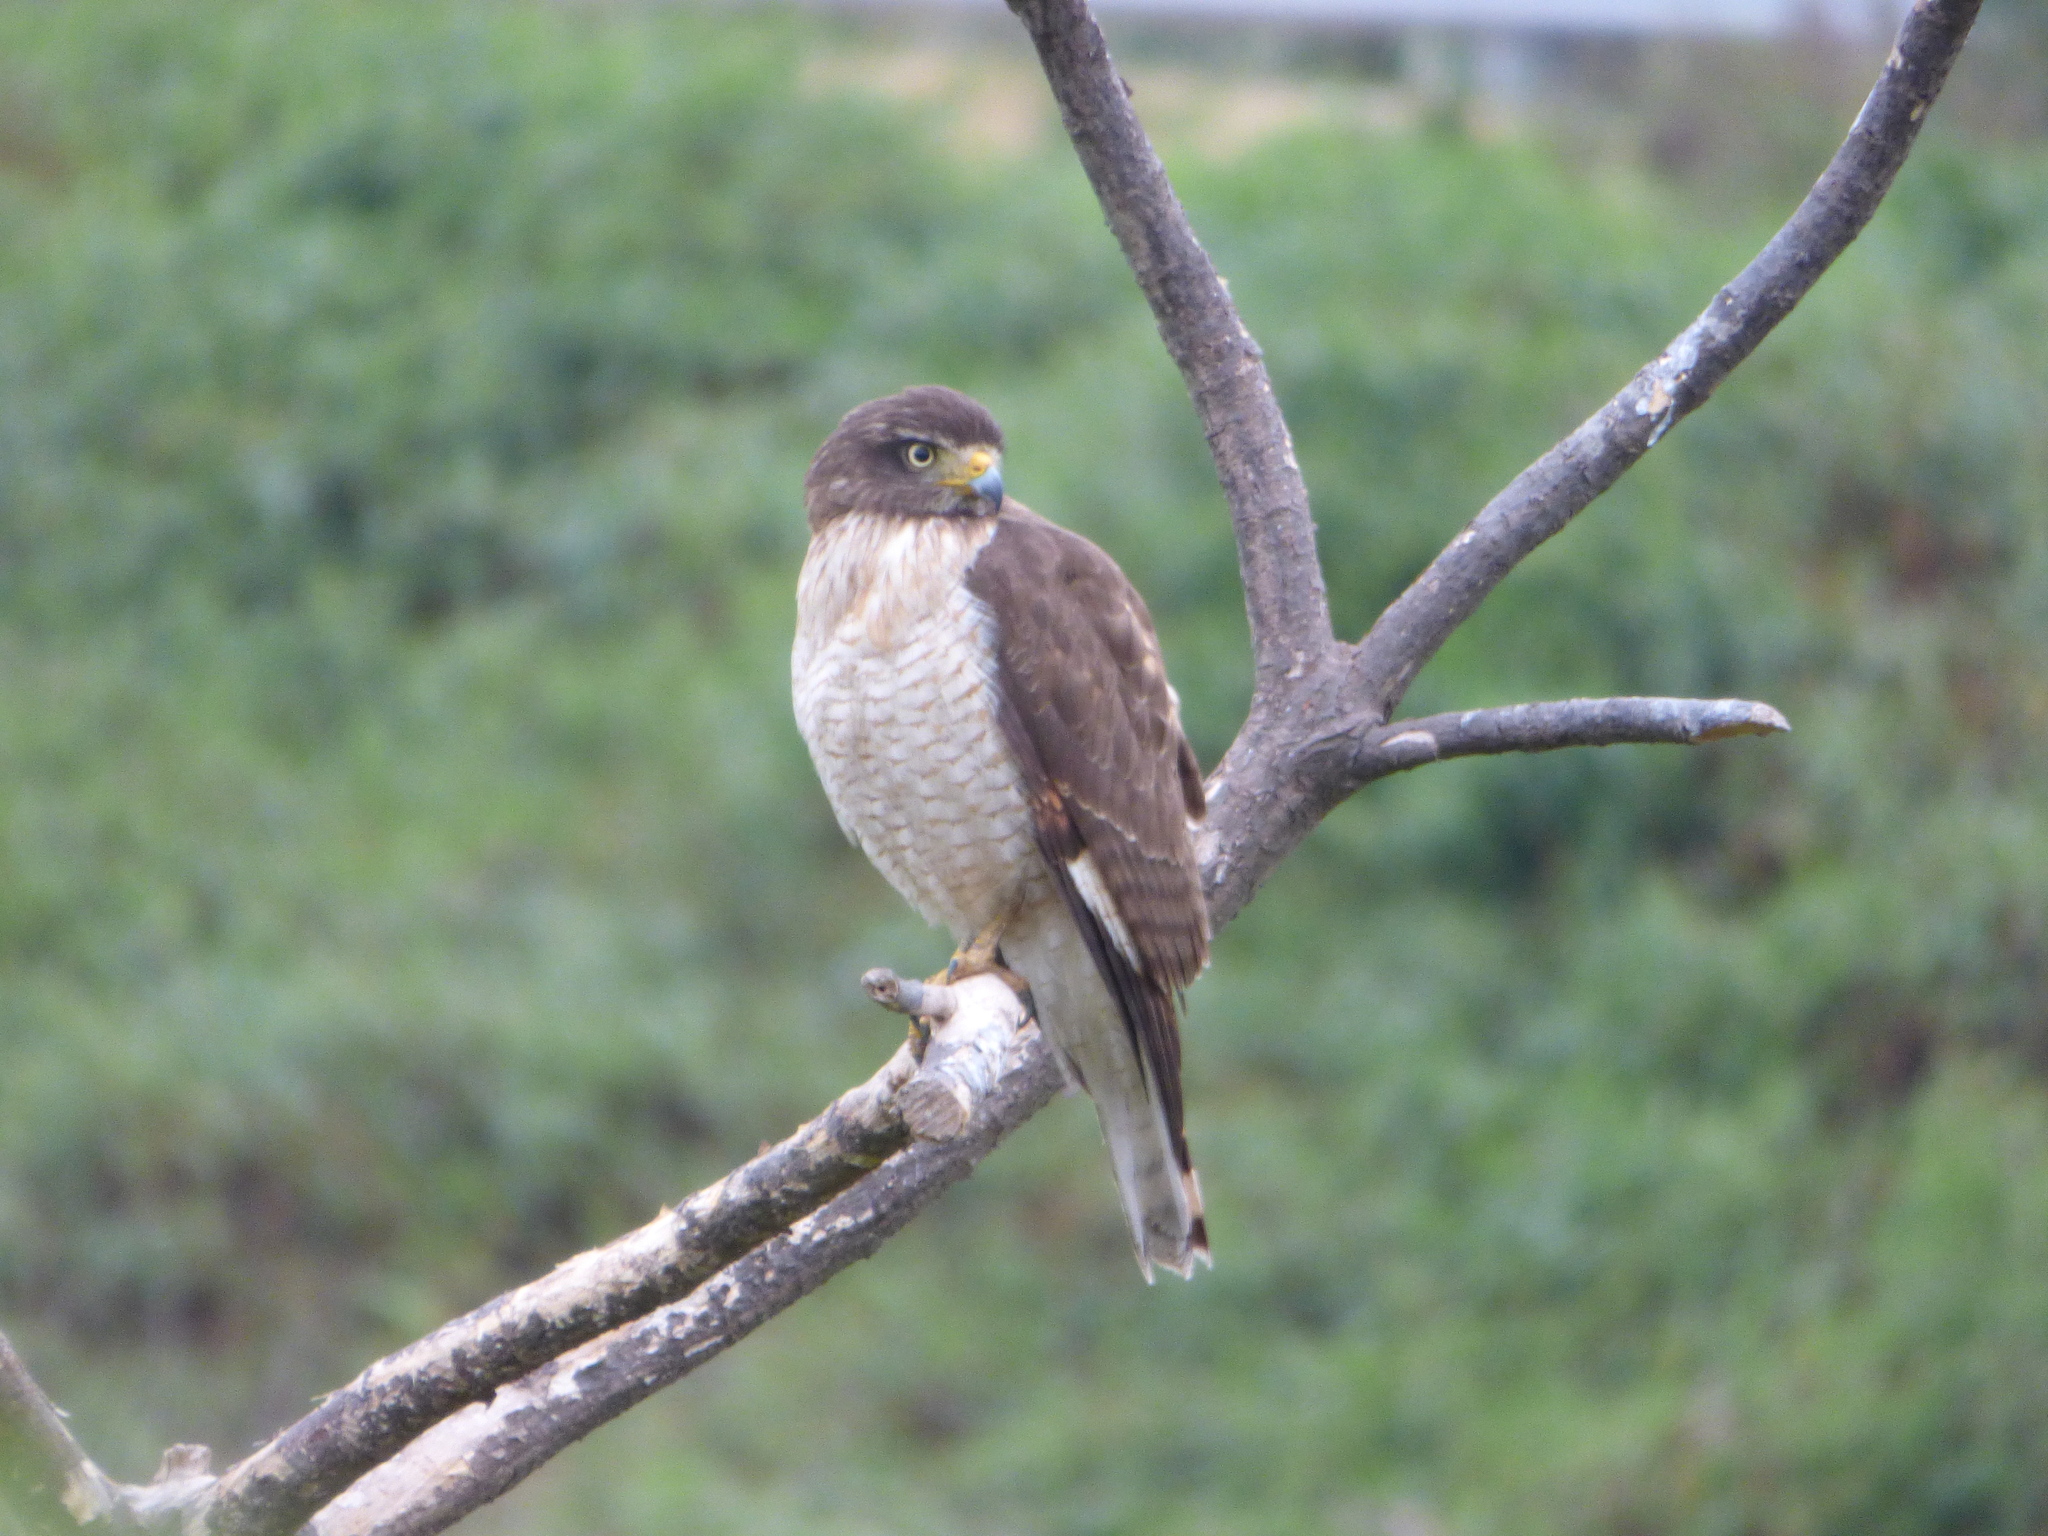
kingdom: Animalia
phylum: Chordata
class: Aves
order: Accipitriformes
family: Accipitridae
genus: Rupornis
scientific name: Rupornis magnirostris
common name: Roadside hawk
